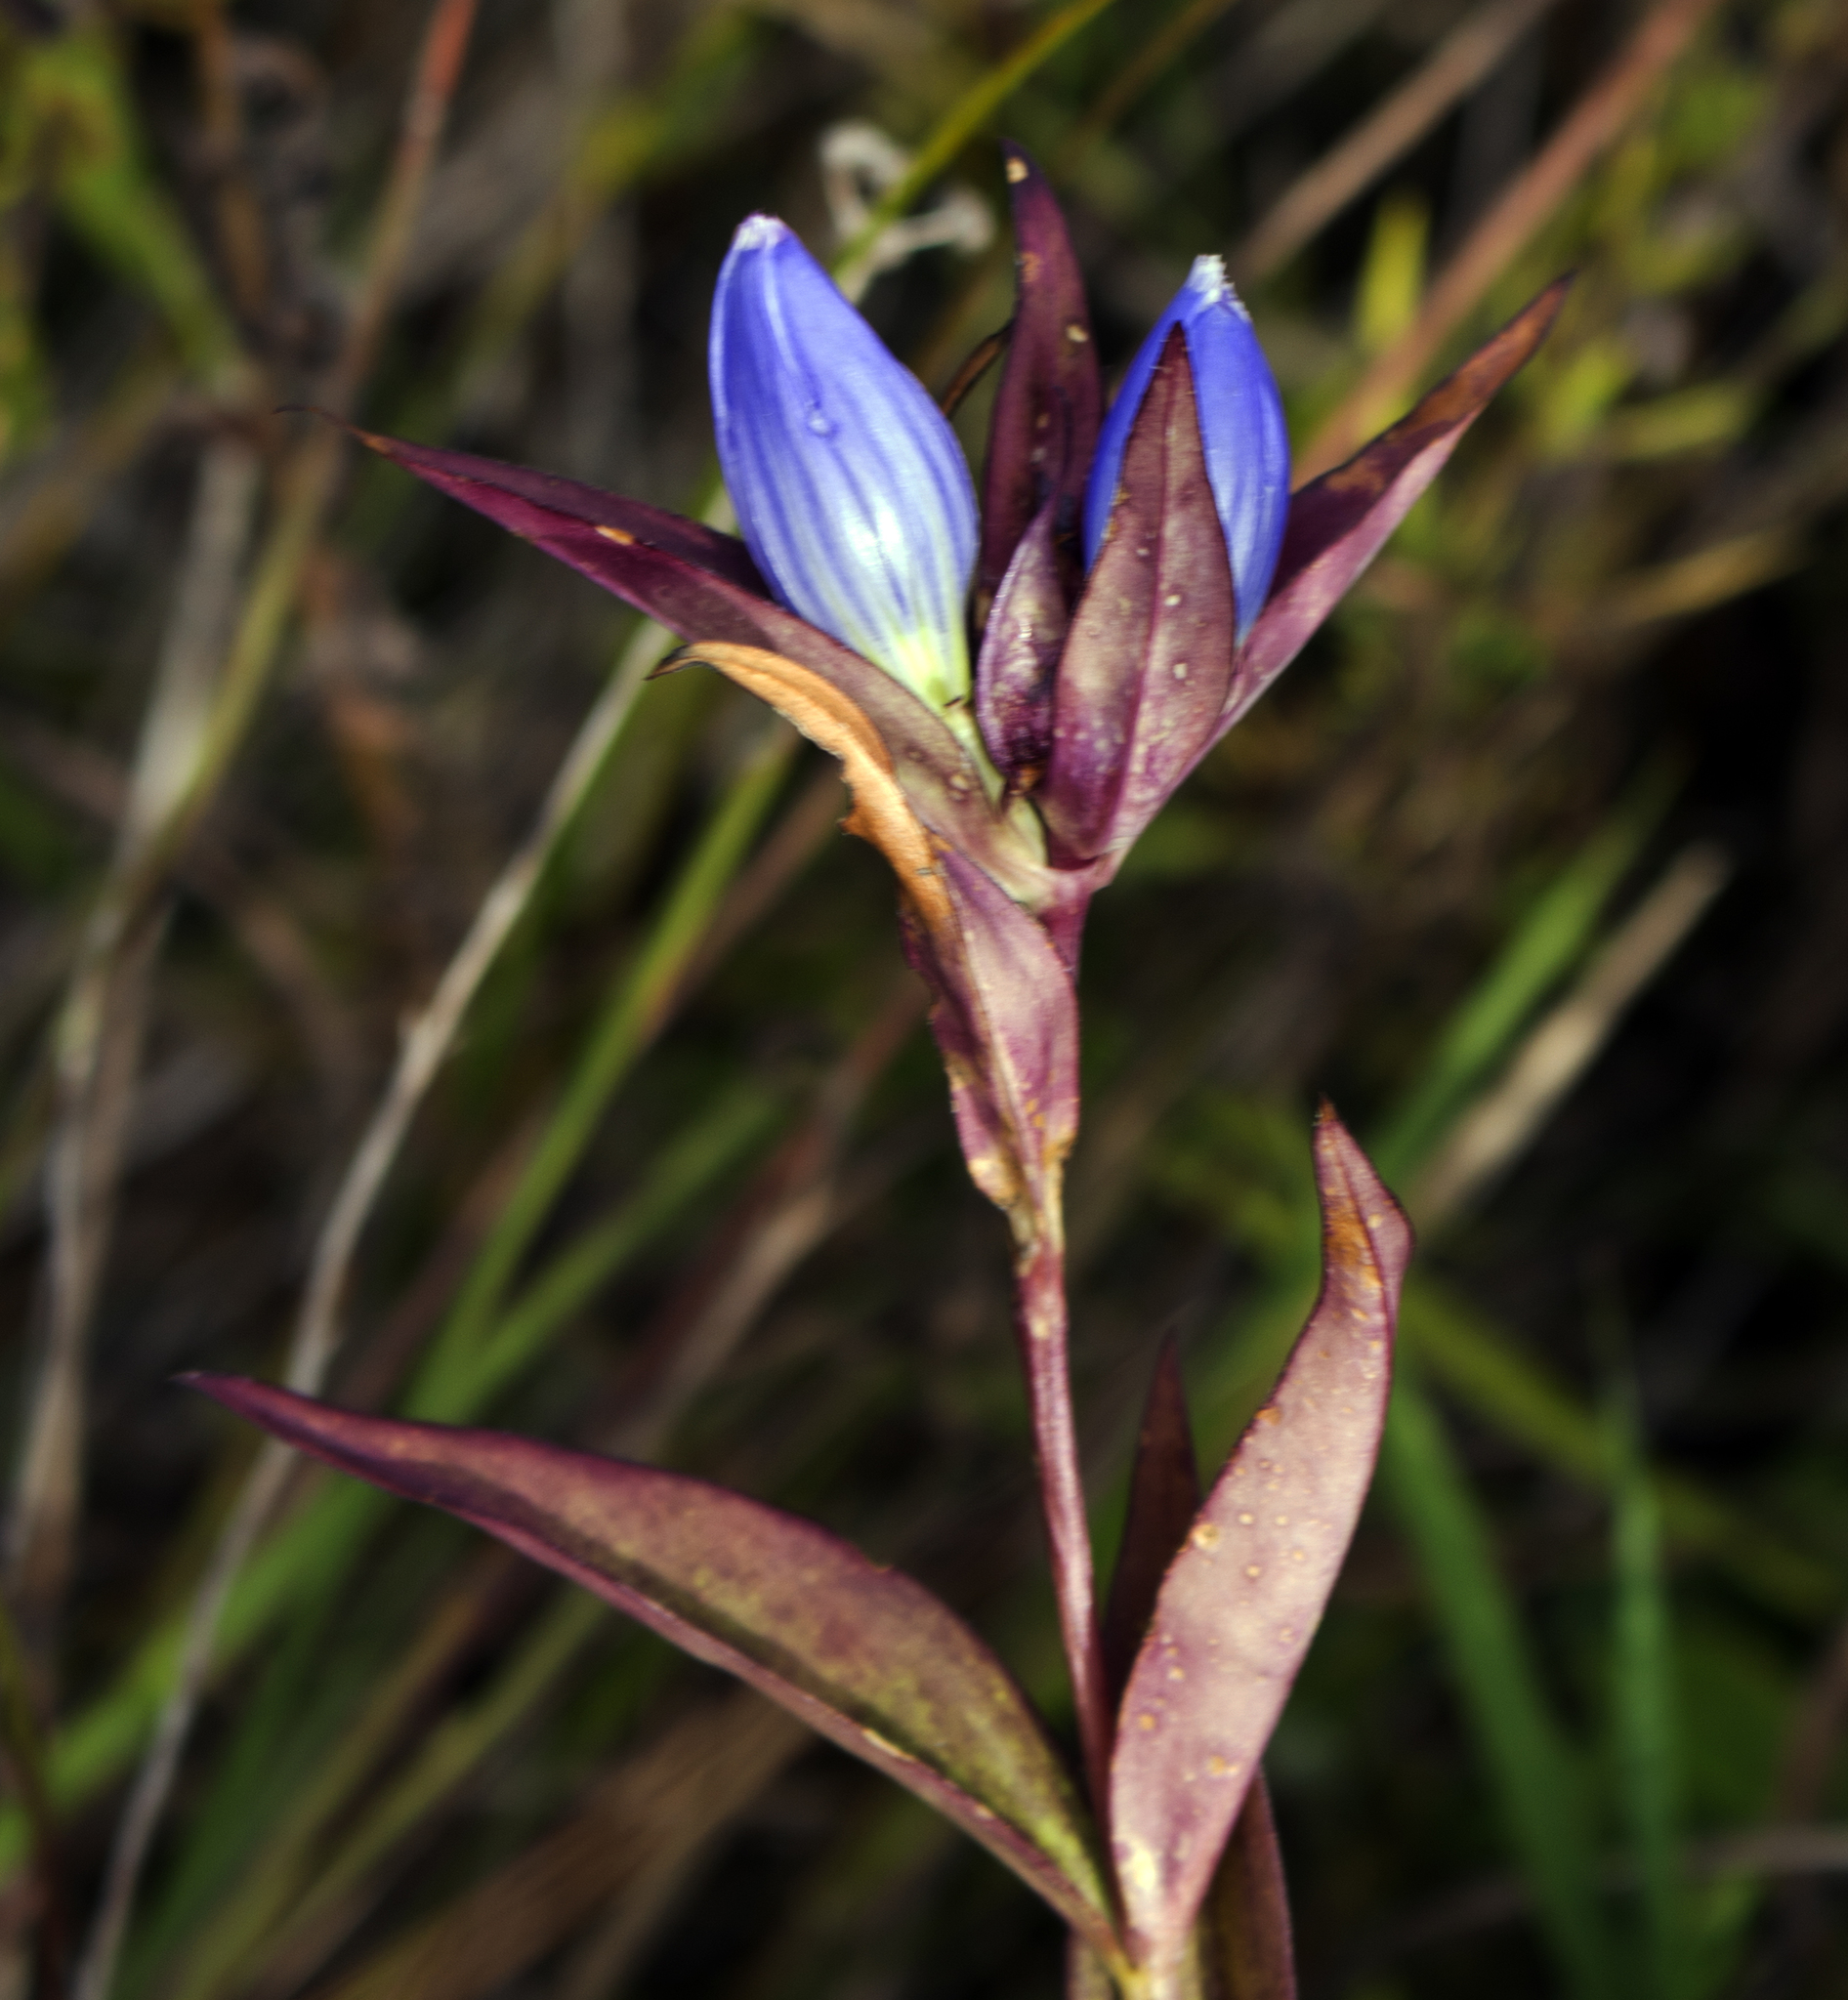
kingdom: Plantae
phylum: Tracheophyta
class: Magnoliopsida
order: Gentianales
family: Gentianaceae
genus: Gentiana
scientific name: Gentiana andrewsii
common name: Bottle gentian
